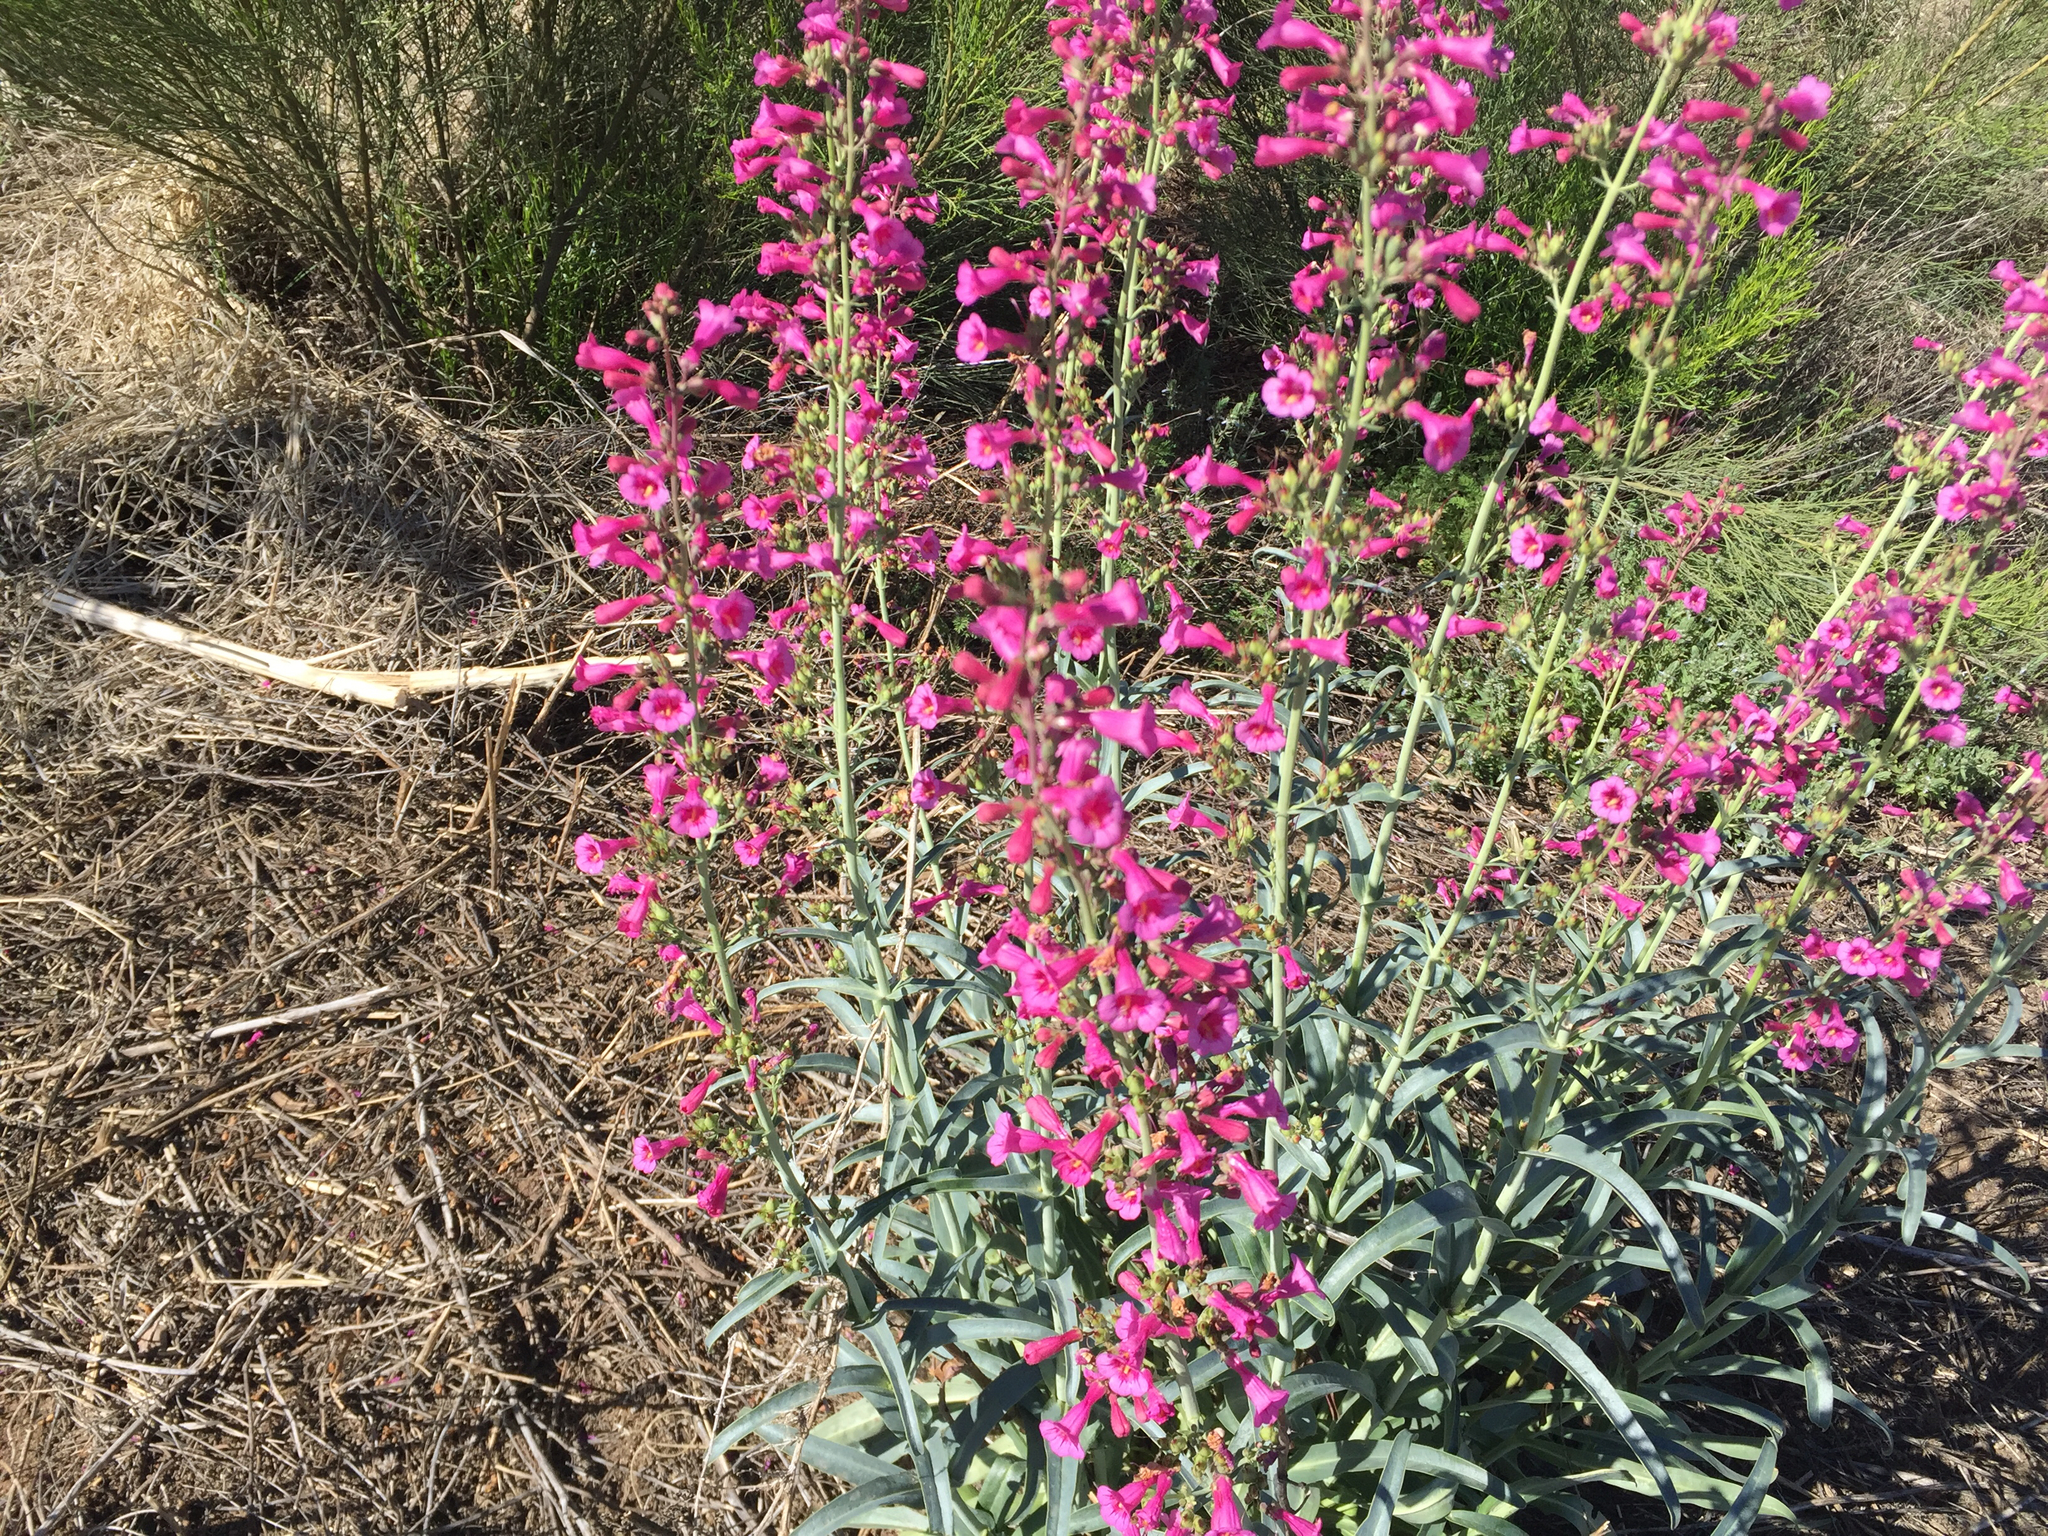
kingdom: Plantae
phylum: Tracheophyta
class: Magnoliopsida
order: Lamiales
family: Plantaginaceae
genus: Penstemon
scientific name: Penstemon parryi
